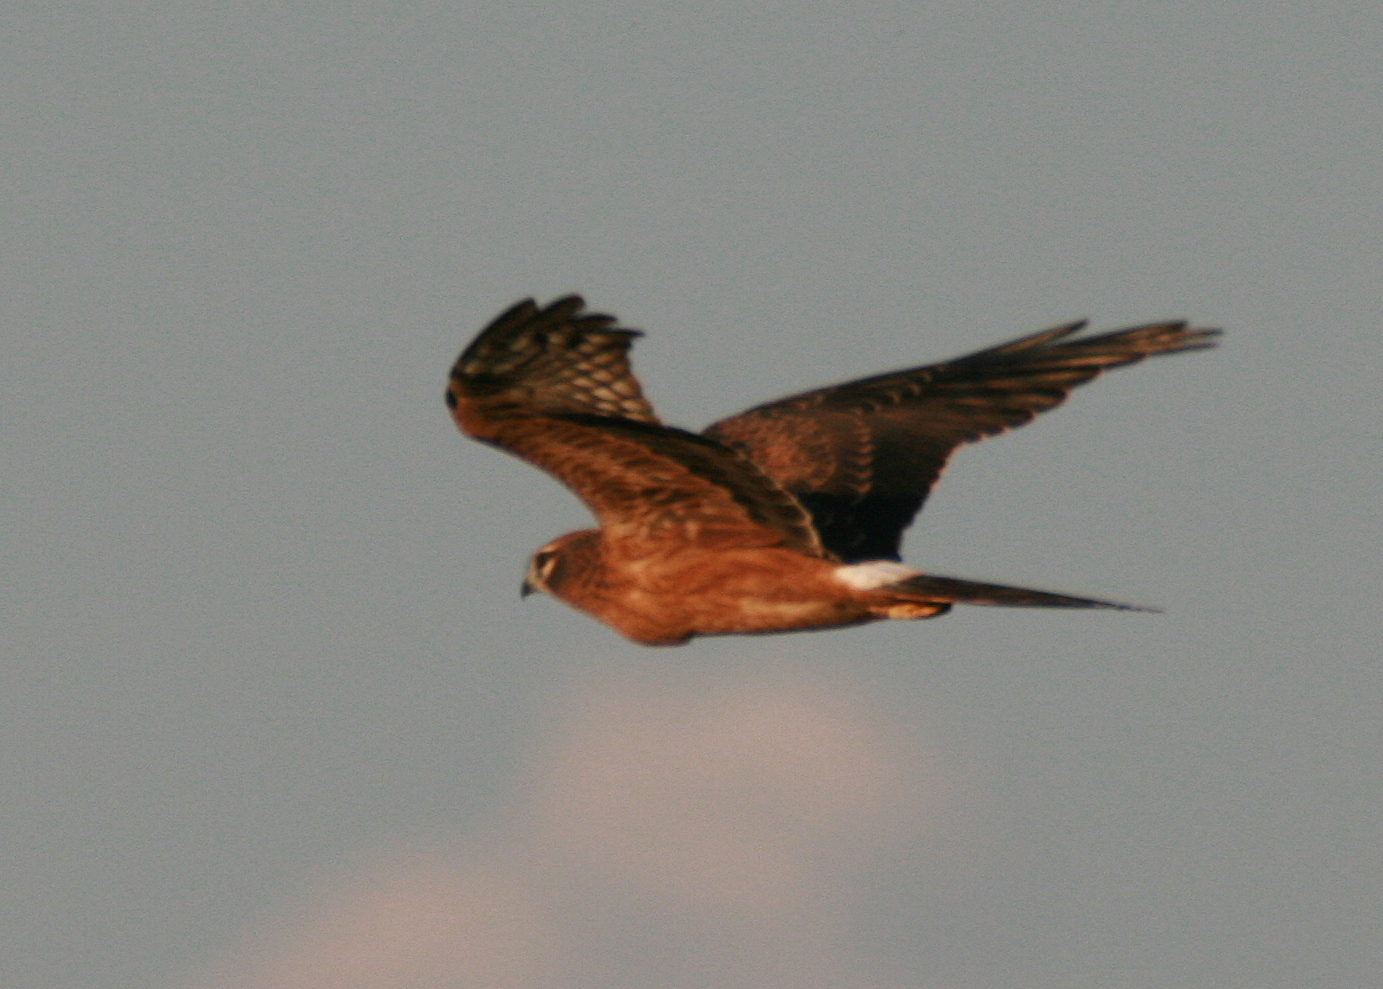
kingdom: Animalia
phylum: Chordata
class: Aves
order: Accipitriformes
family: Accipitridae
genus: Circus
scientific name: Circus pygargus
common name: Montagu's harrier
